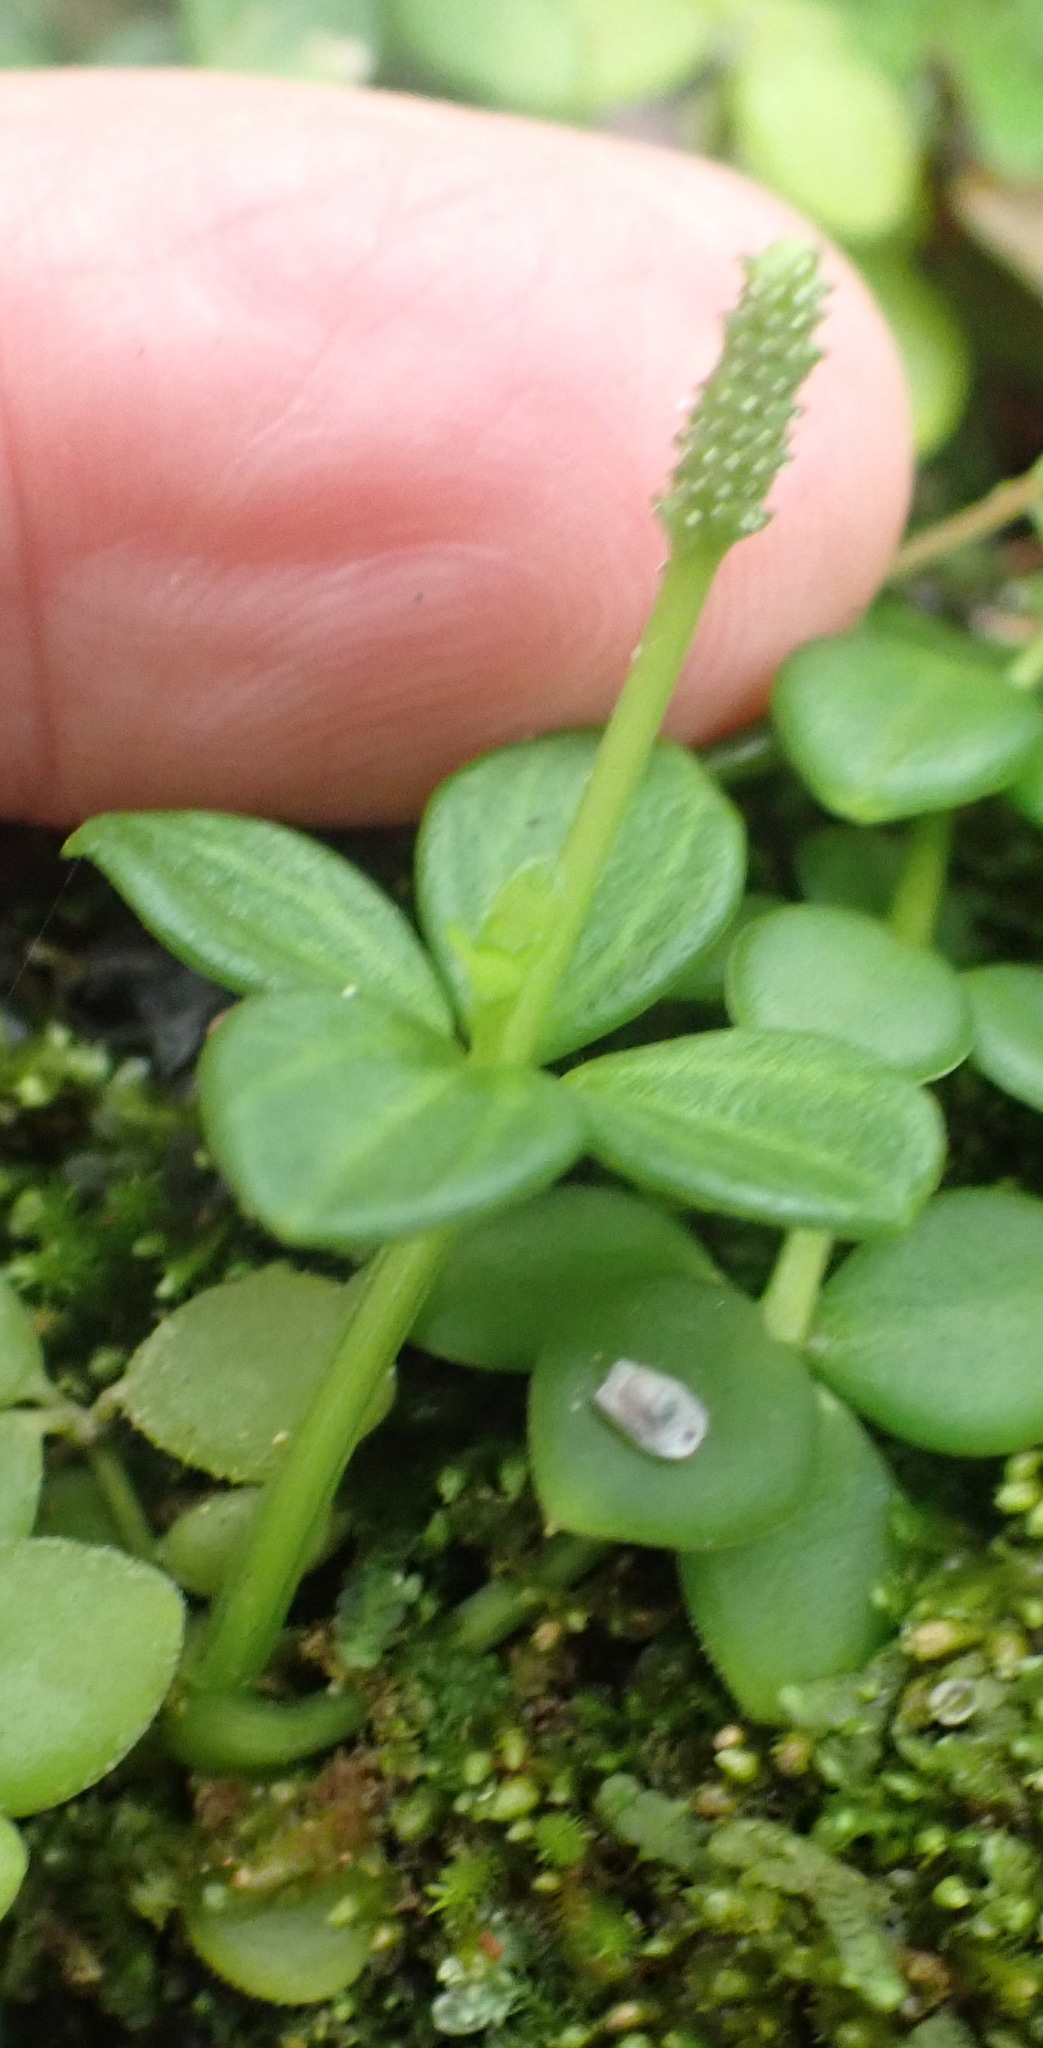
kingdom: Plantae
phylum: Tracheophyta
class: Magnoliopsida
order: Piperales
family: Piperaceae
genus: Peperomia
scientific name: Peperomia tetraphylla
